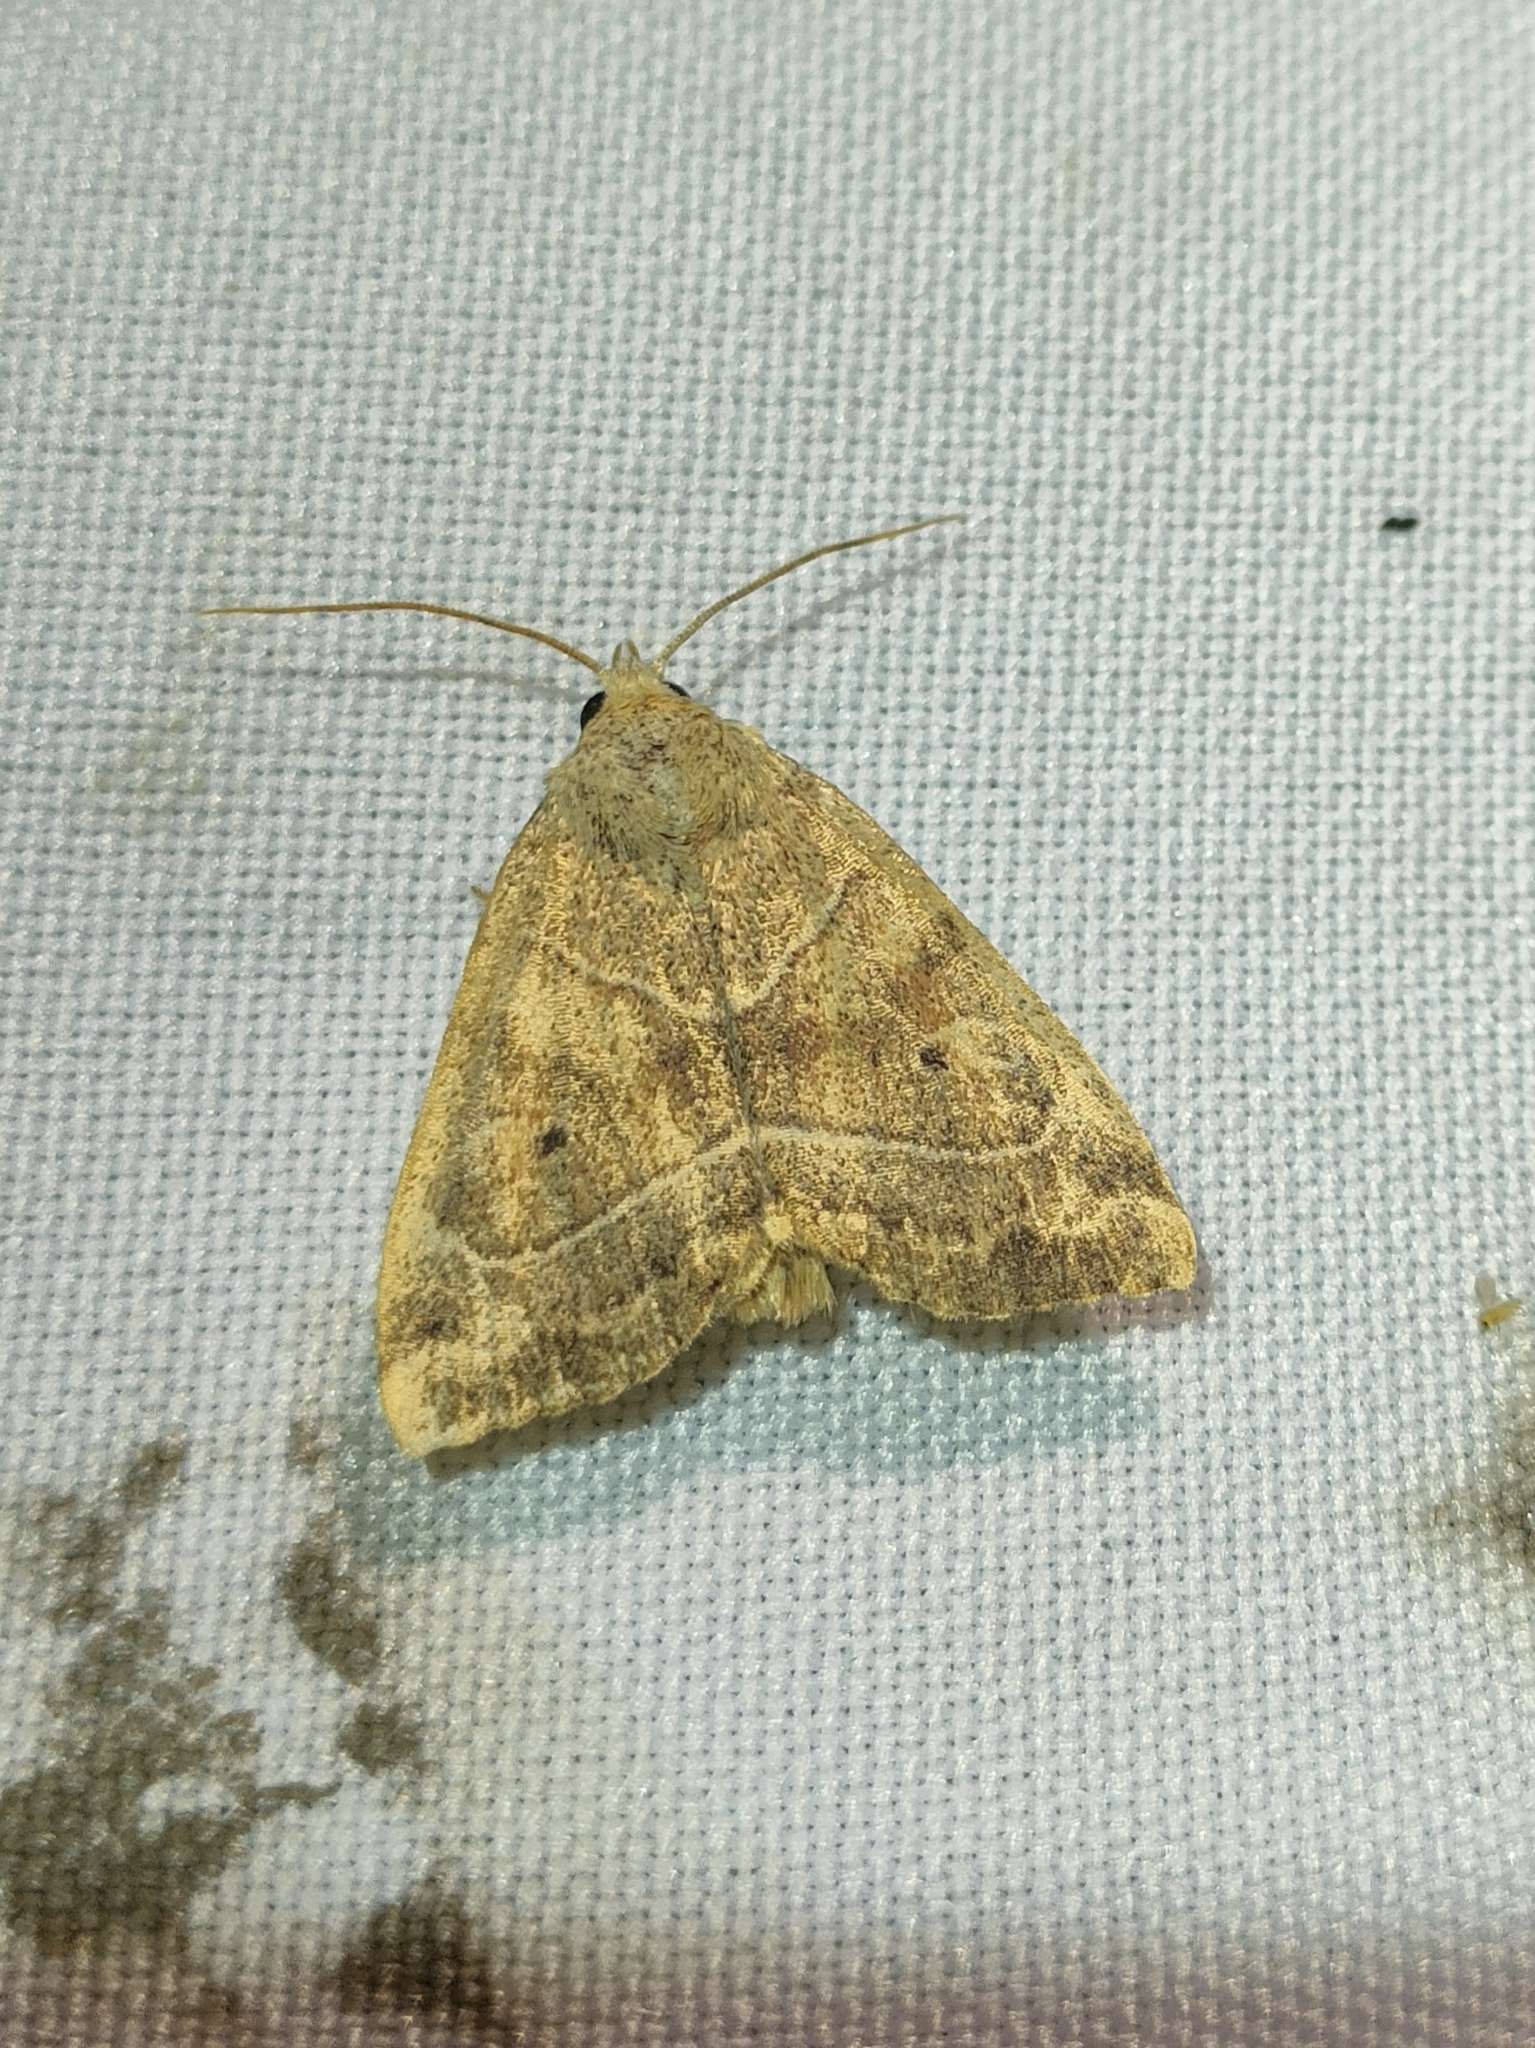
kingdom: Animalia
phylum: Arthropoda
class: Insecta
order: Lepidoptera
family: Noctuidae
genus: Cosmia
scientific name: Cosmia trapezina
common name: Dun-bar
